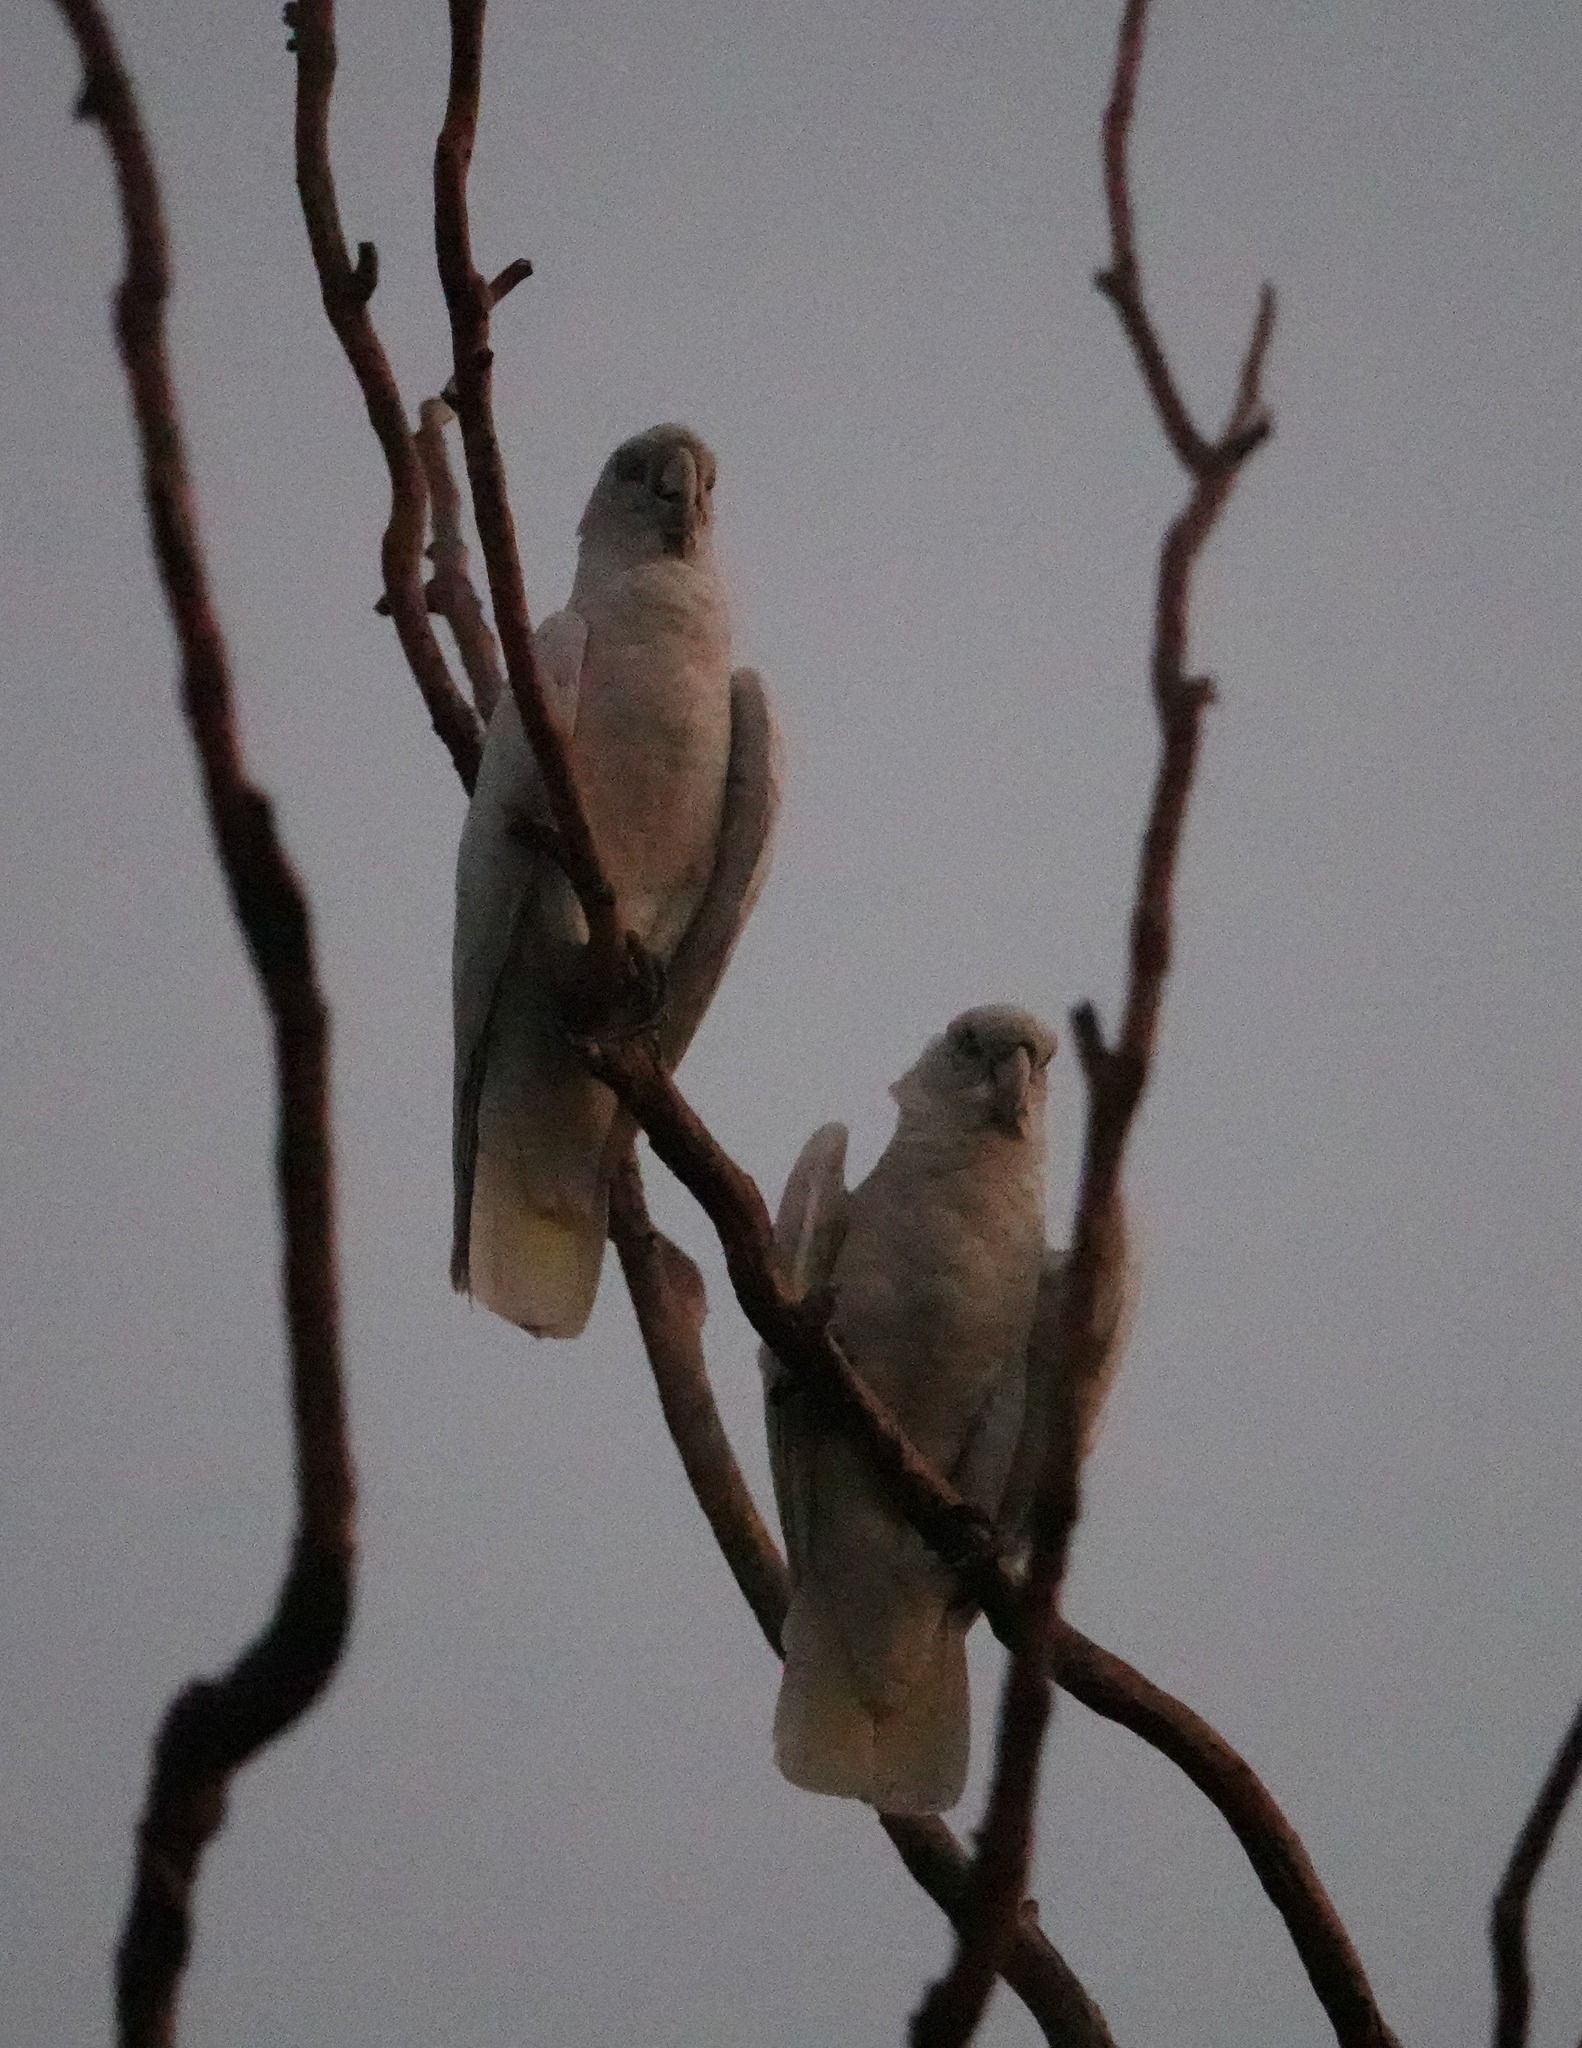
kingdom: Animalia
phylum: Chordata
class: Aves
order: Psittaciformes
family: Psittacidae
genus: Cacatua
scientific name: Cacatua sanguinea
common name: Little corella
